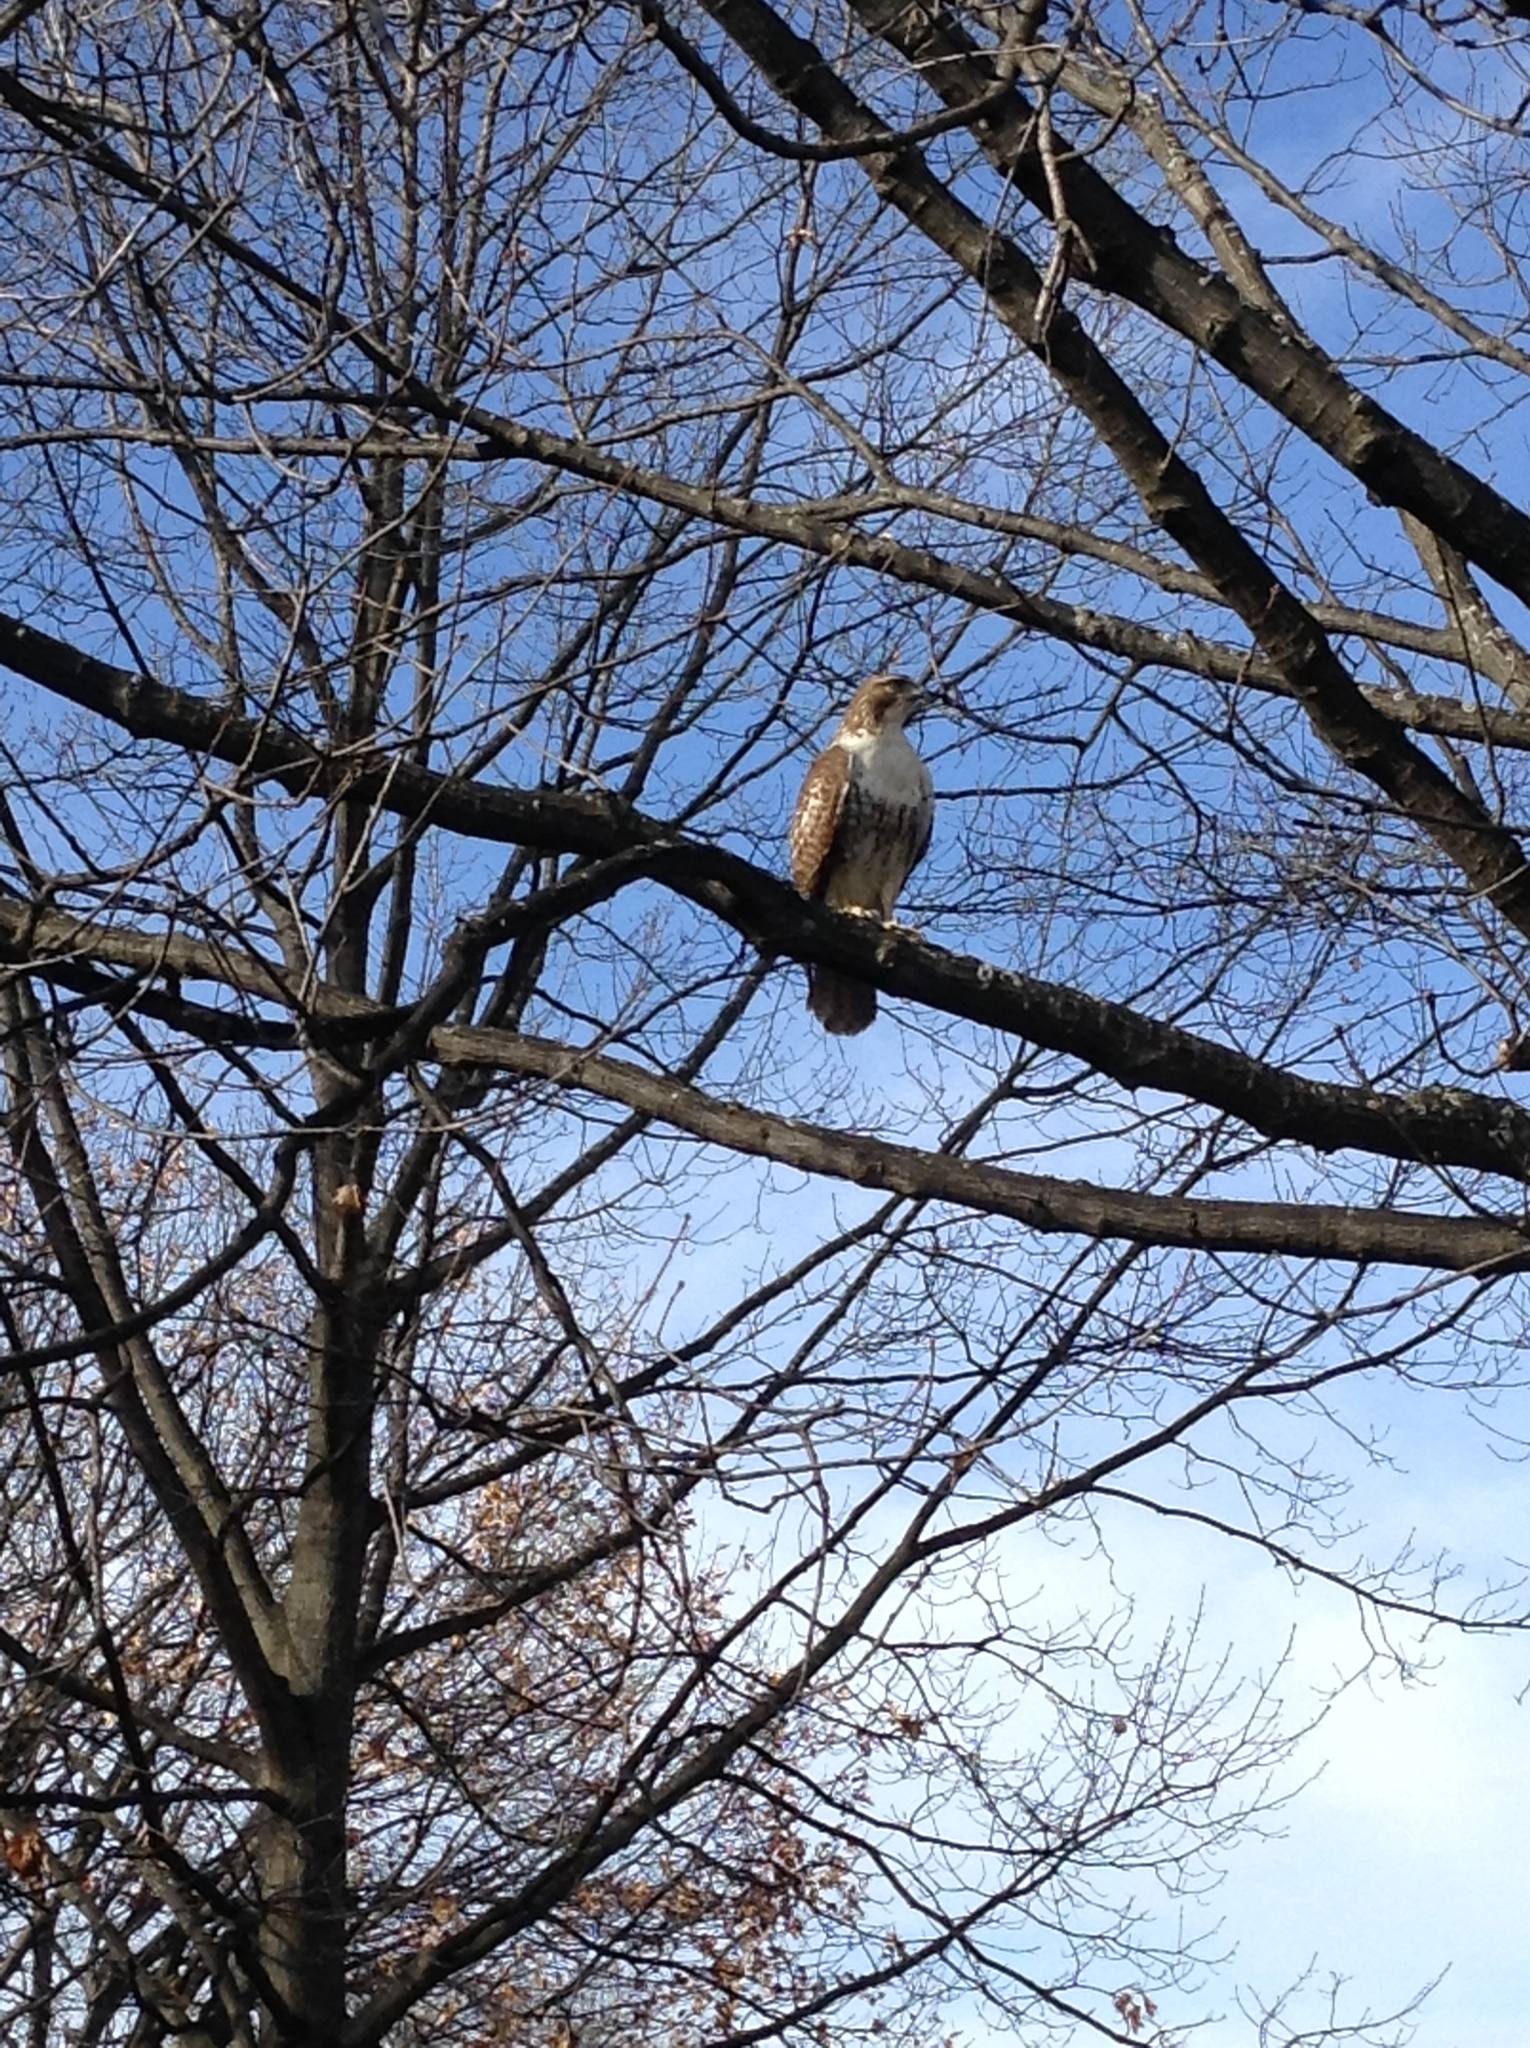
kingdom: Animalia
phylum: Chordata
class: Aves
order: Accipitriformes
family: Accipitridae
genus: Buteo
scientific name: Buteo jamaicensis
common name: Red-tailed hawk
